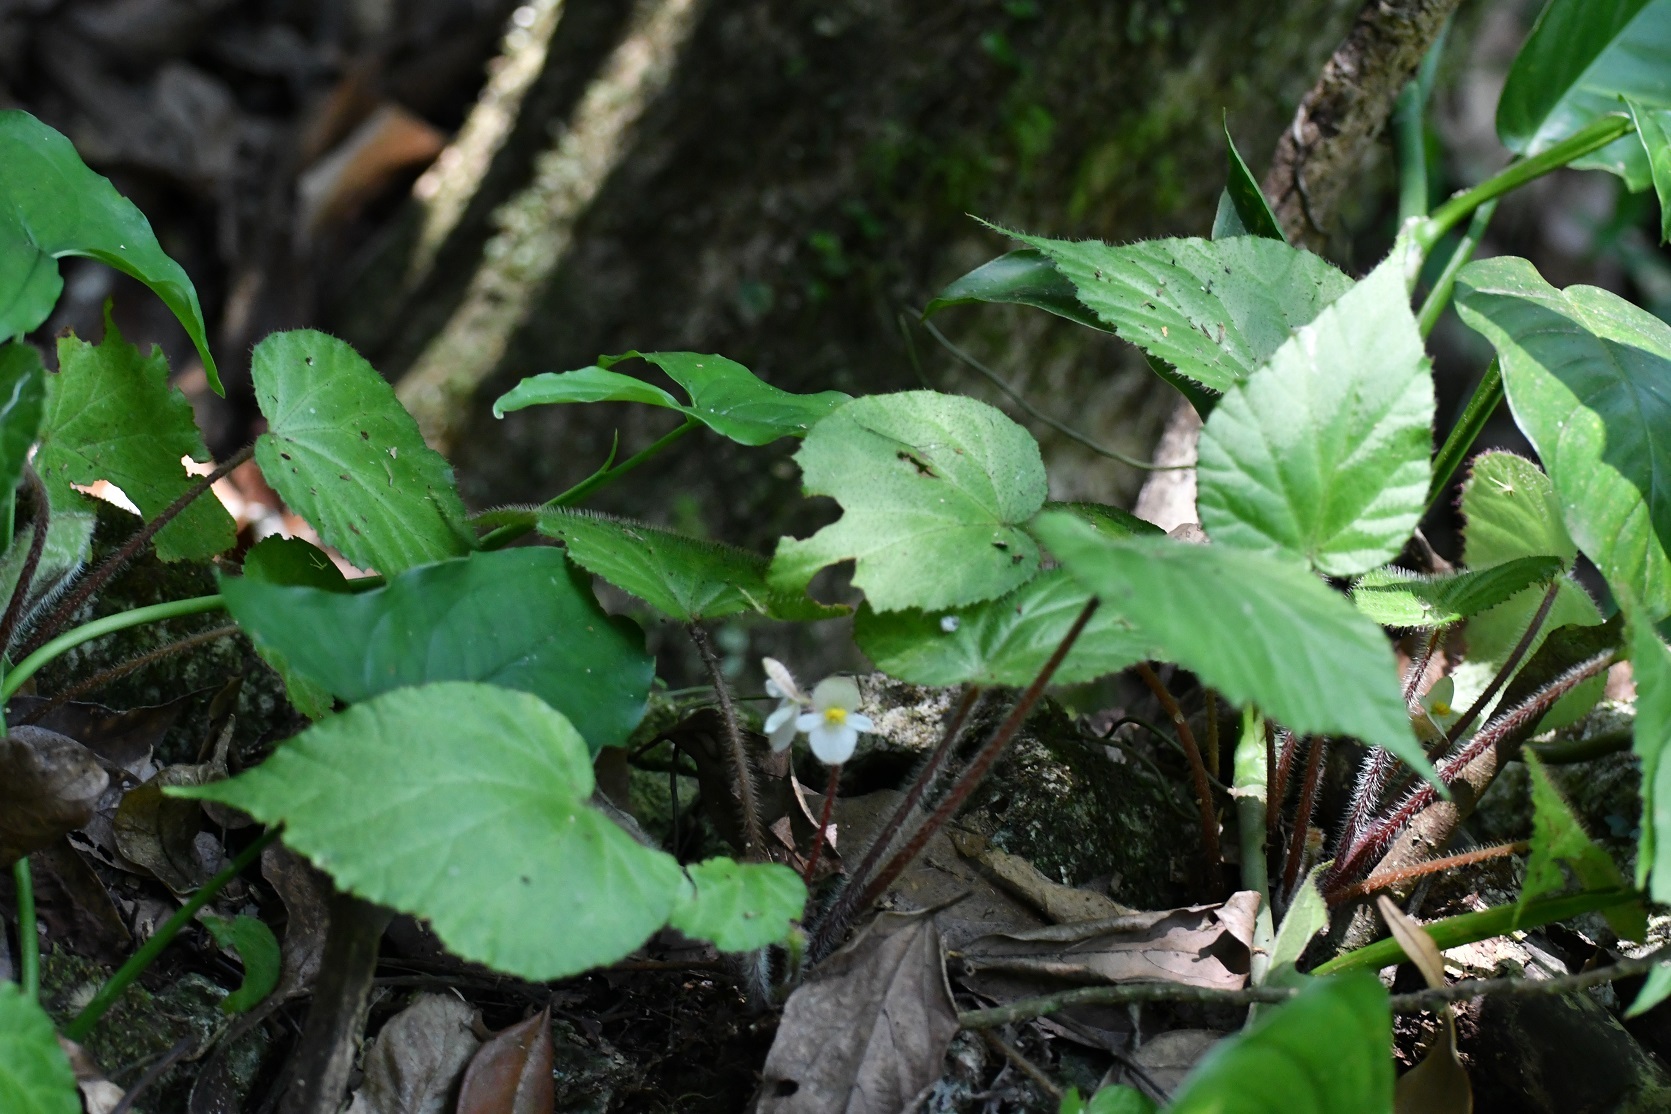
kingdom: Plantae
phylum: Tracheophyta
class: Magnoliopsida
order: Cucurbitales
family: Begoniaceae
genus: Begonia
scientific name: Begonia faustinoi
